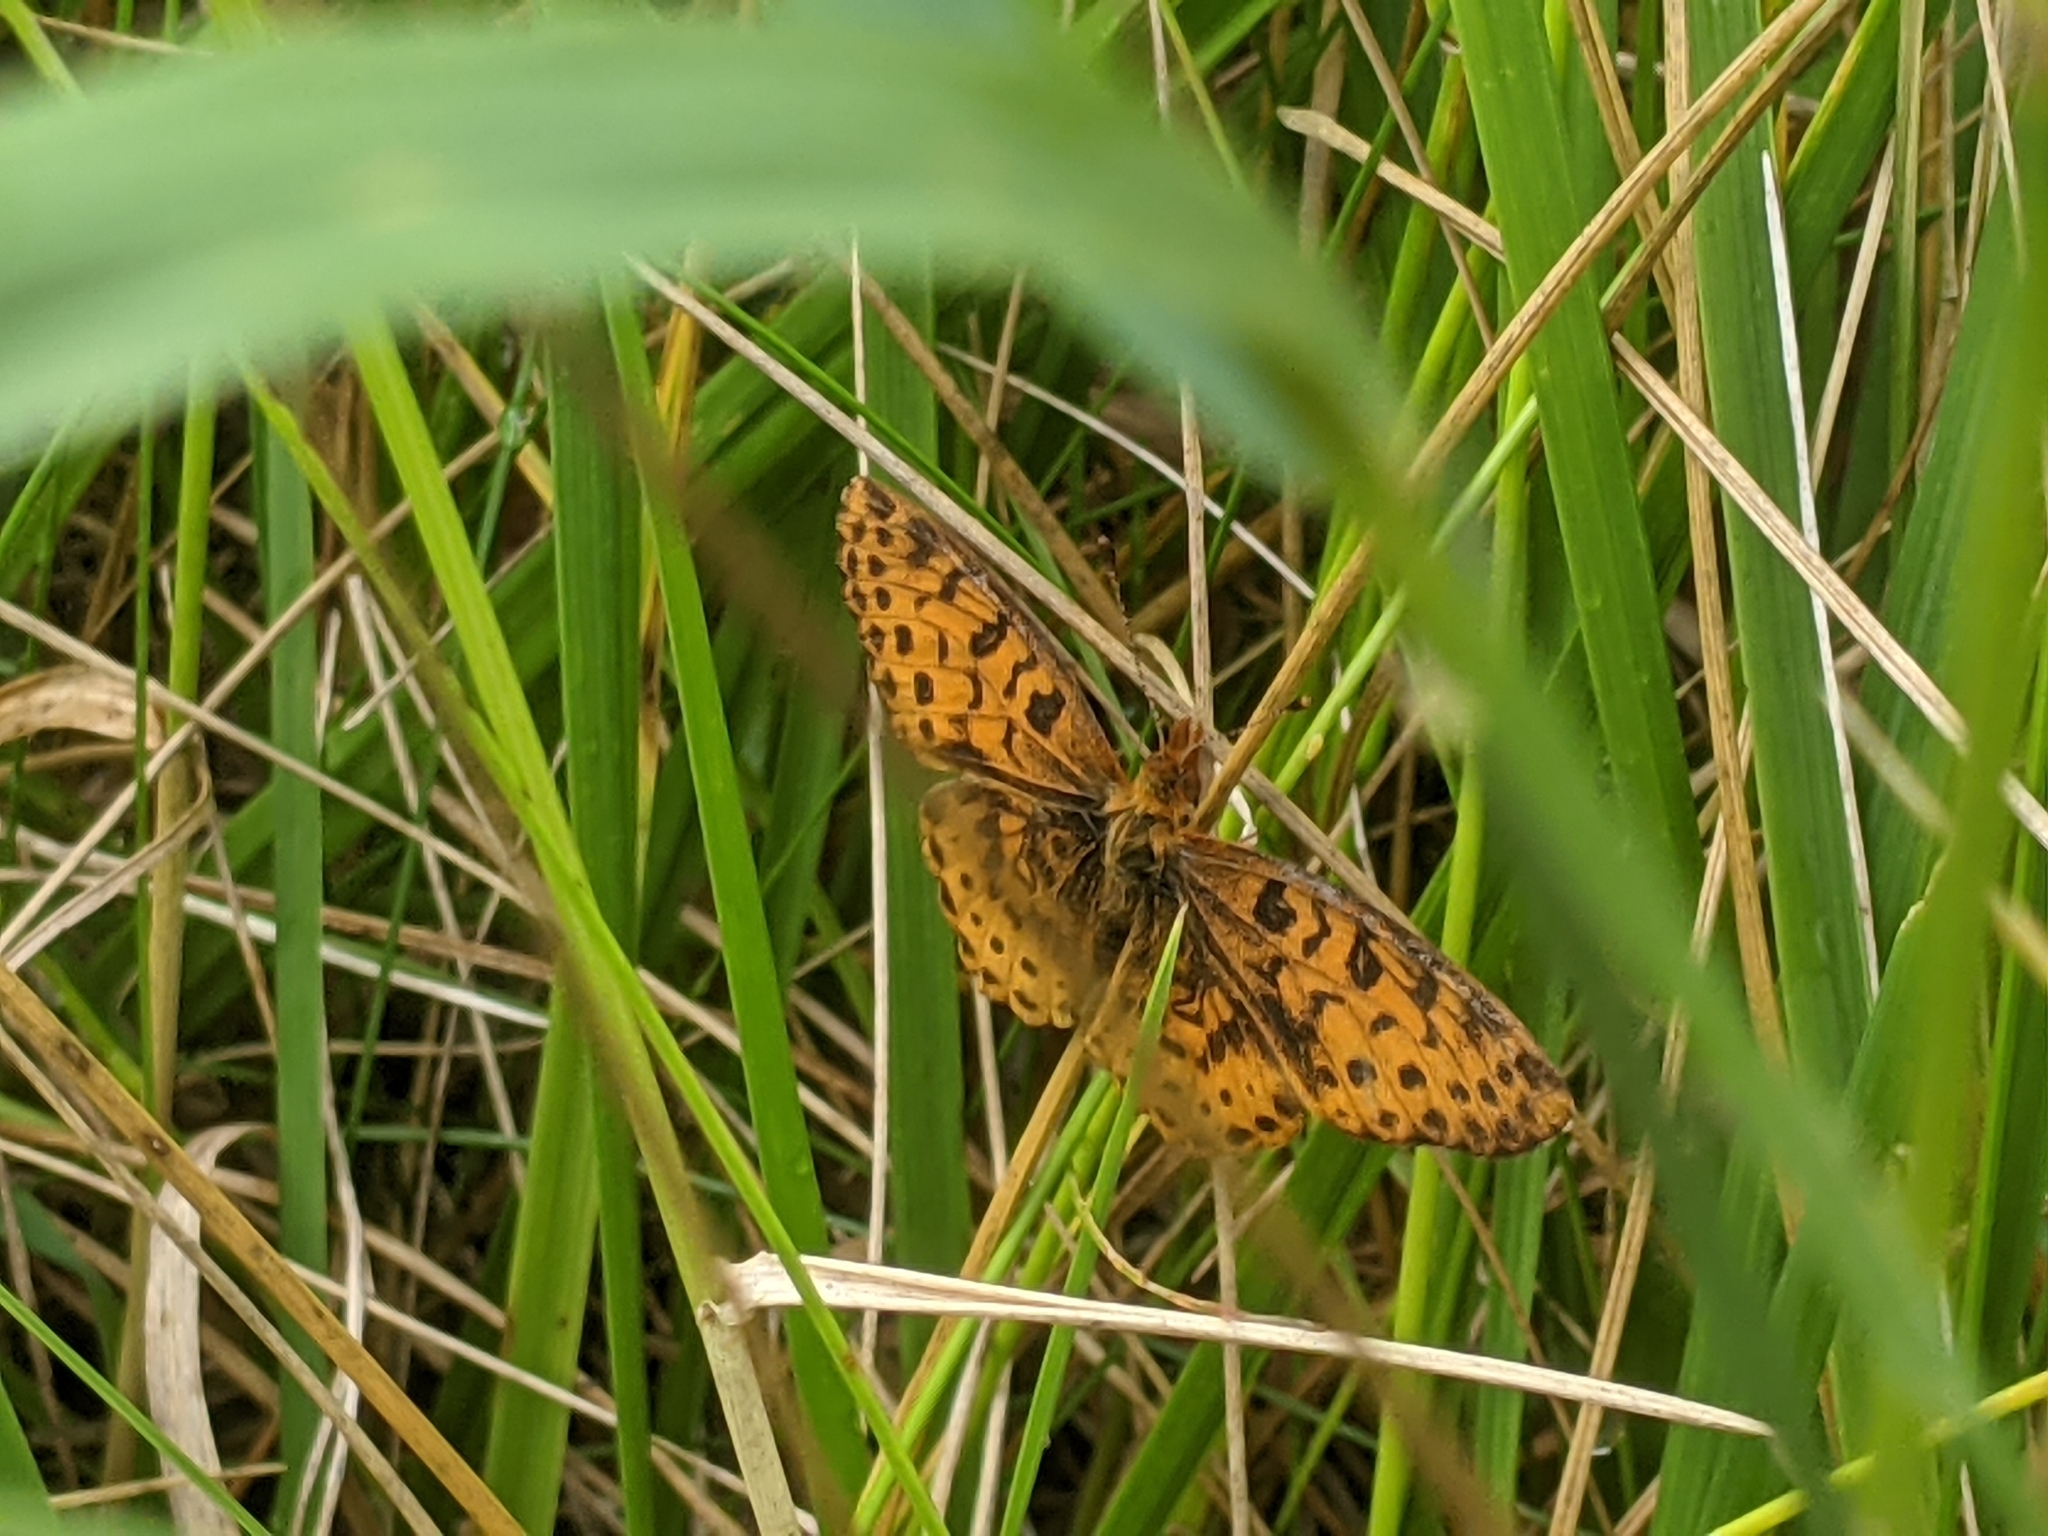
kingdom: Animalia
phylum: Arthropoda
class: Insecta
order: Lepidoptera
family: Nymphalidae
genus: Clossiana
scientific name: Clossiana toddi
